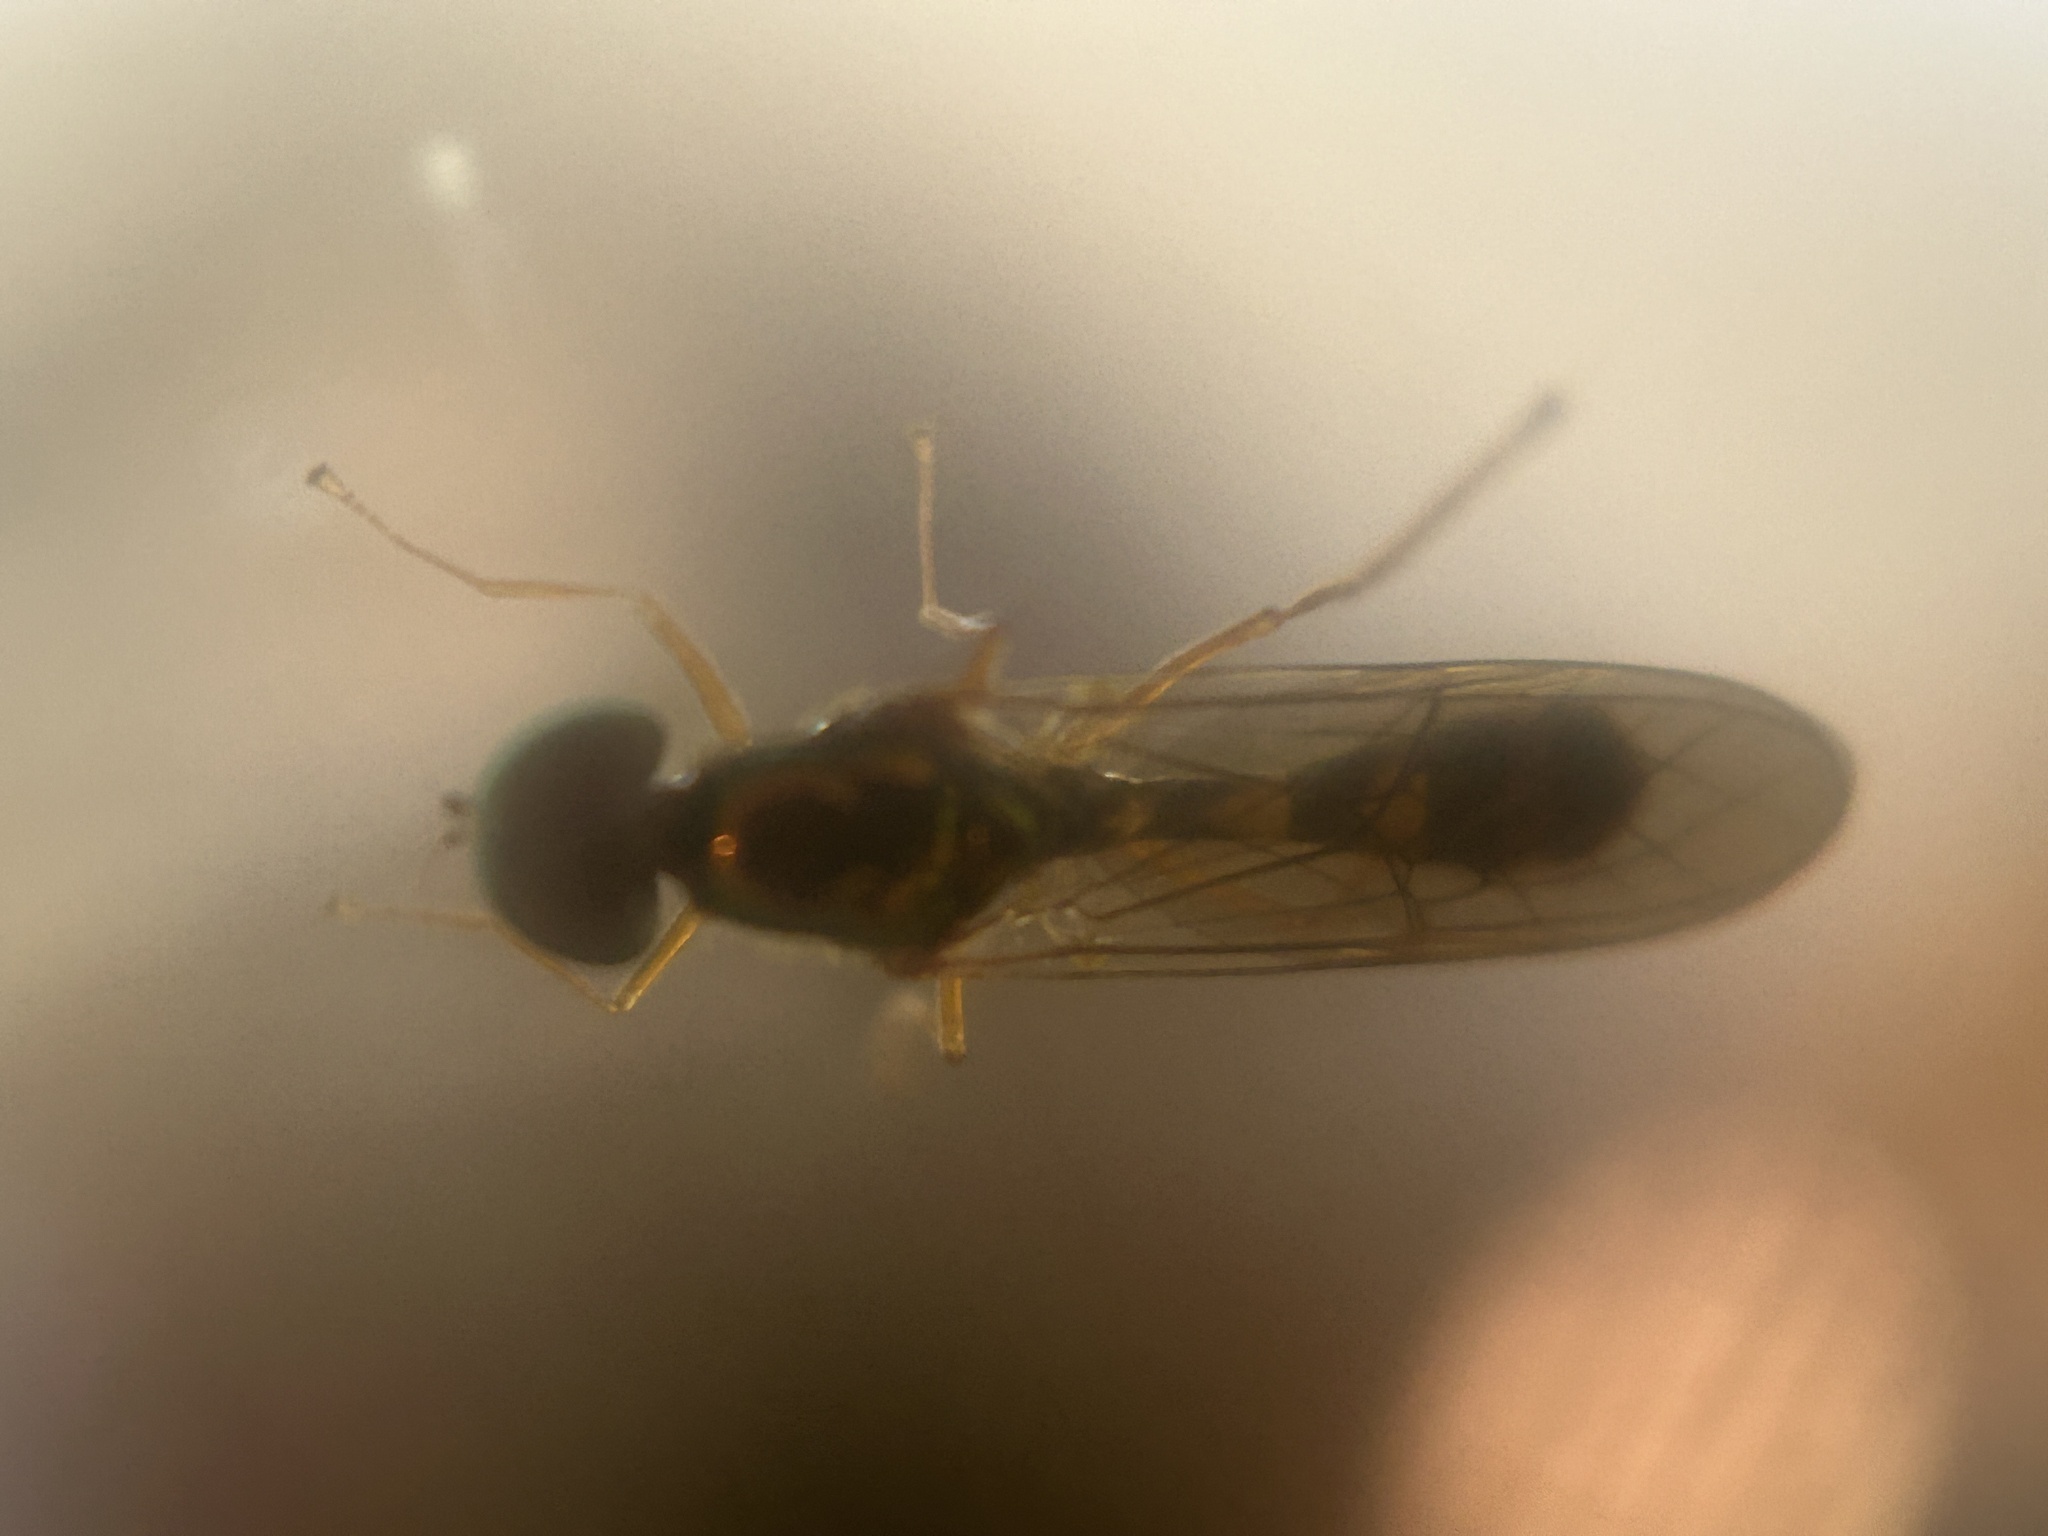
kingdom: Animalia
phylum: Arthropoda
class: Insecta
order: Diptera
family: Stratiomyidae
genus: Sargus
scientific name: Sargus fasciatus
